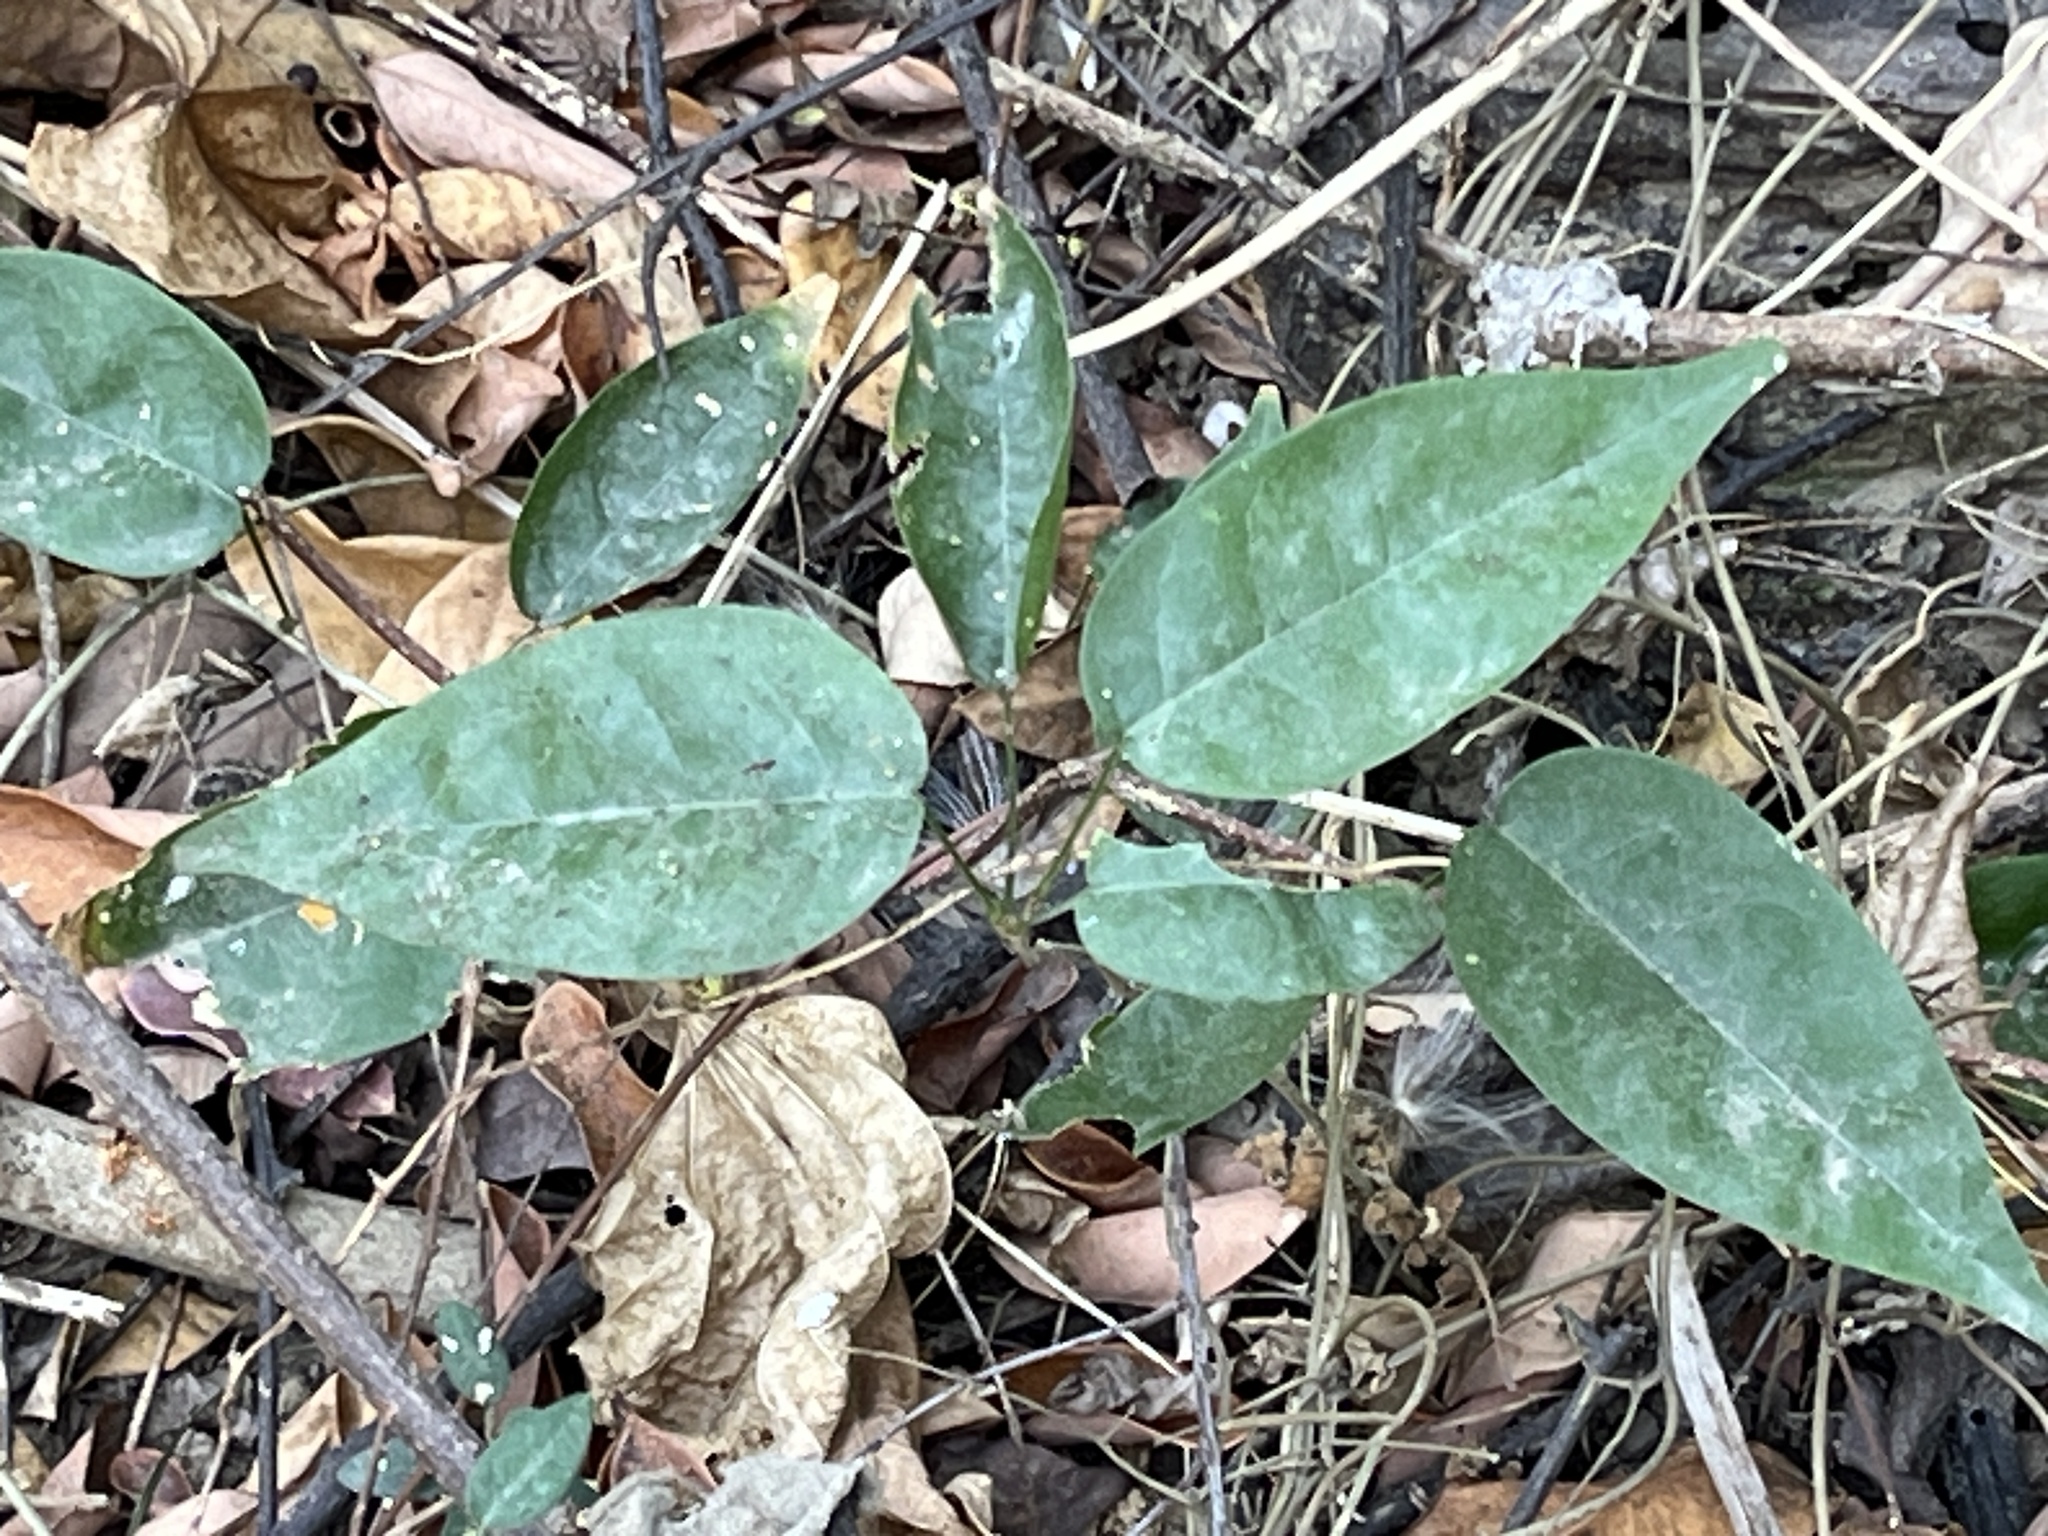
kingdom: Plantae
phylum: Tracheophyta
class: Magnoliopsida
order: Gentianales
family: Apocynaceae
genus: Marsdenia
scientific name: Marsdenia tinctoria
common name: Climbing-indigo
